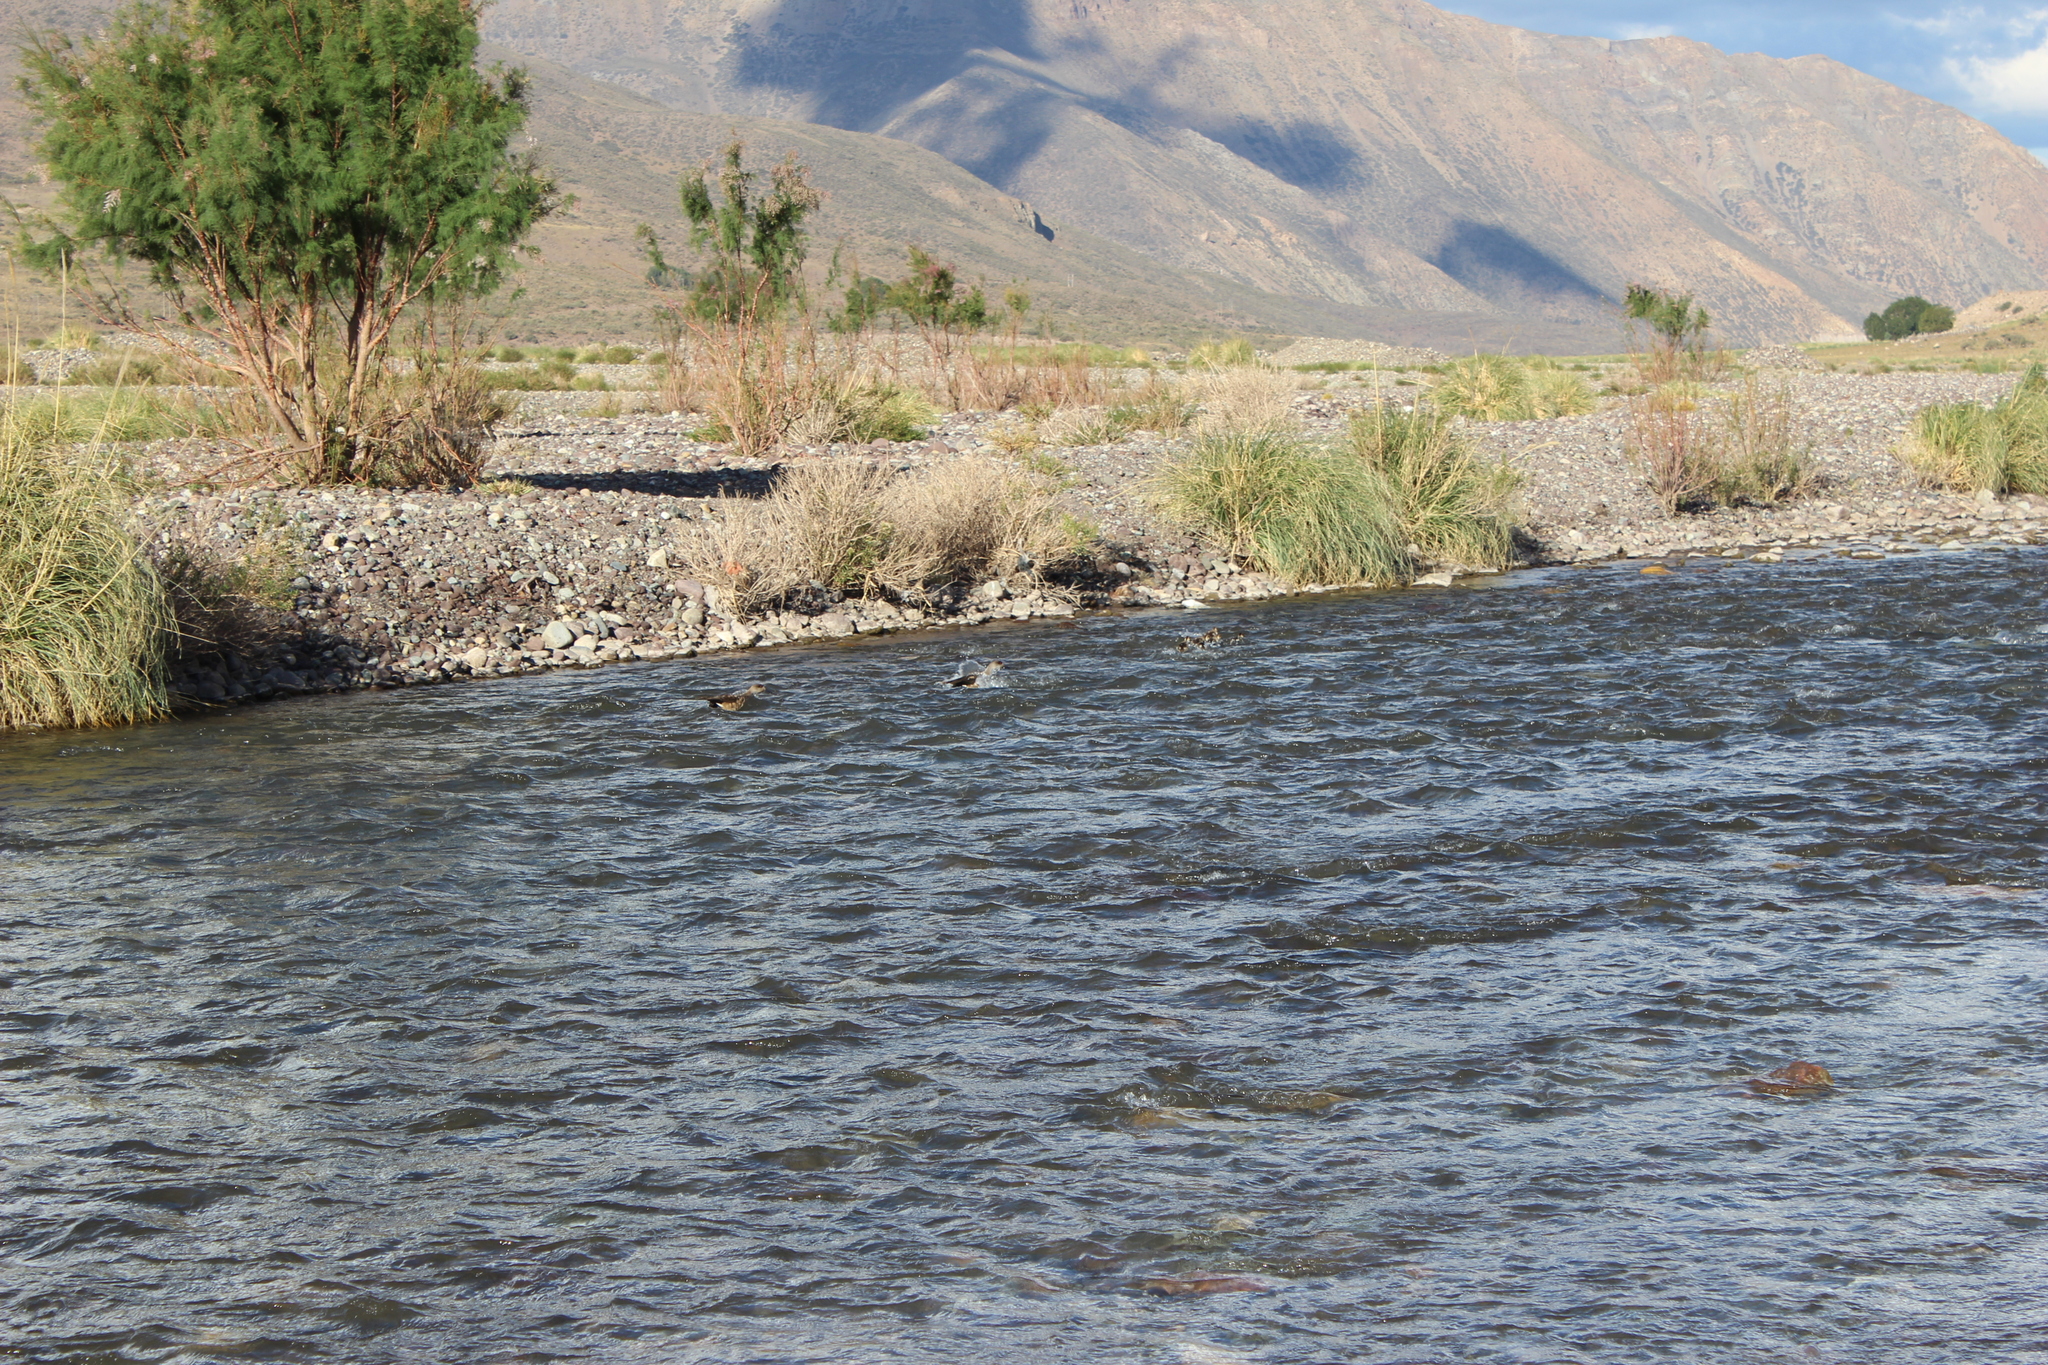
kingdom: Animalia
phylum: Chordata
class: Aves
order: Anseriformes
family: Anatidae
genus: Lophonetta
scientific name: Lophonetta specularioides
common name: Crested duck
